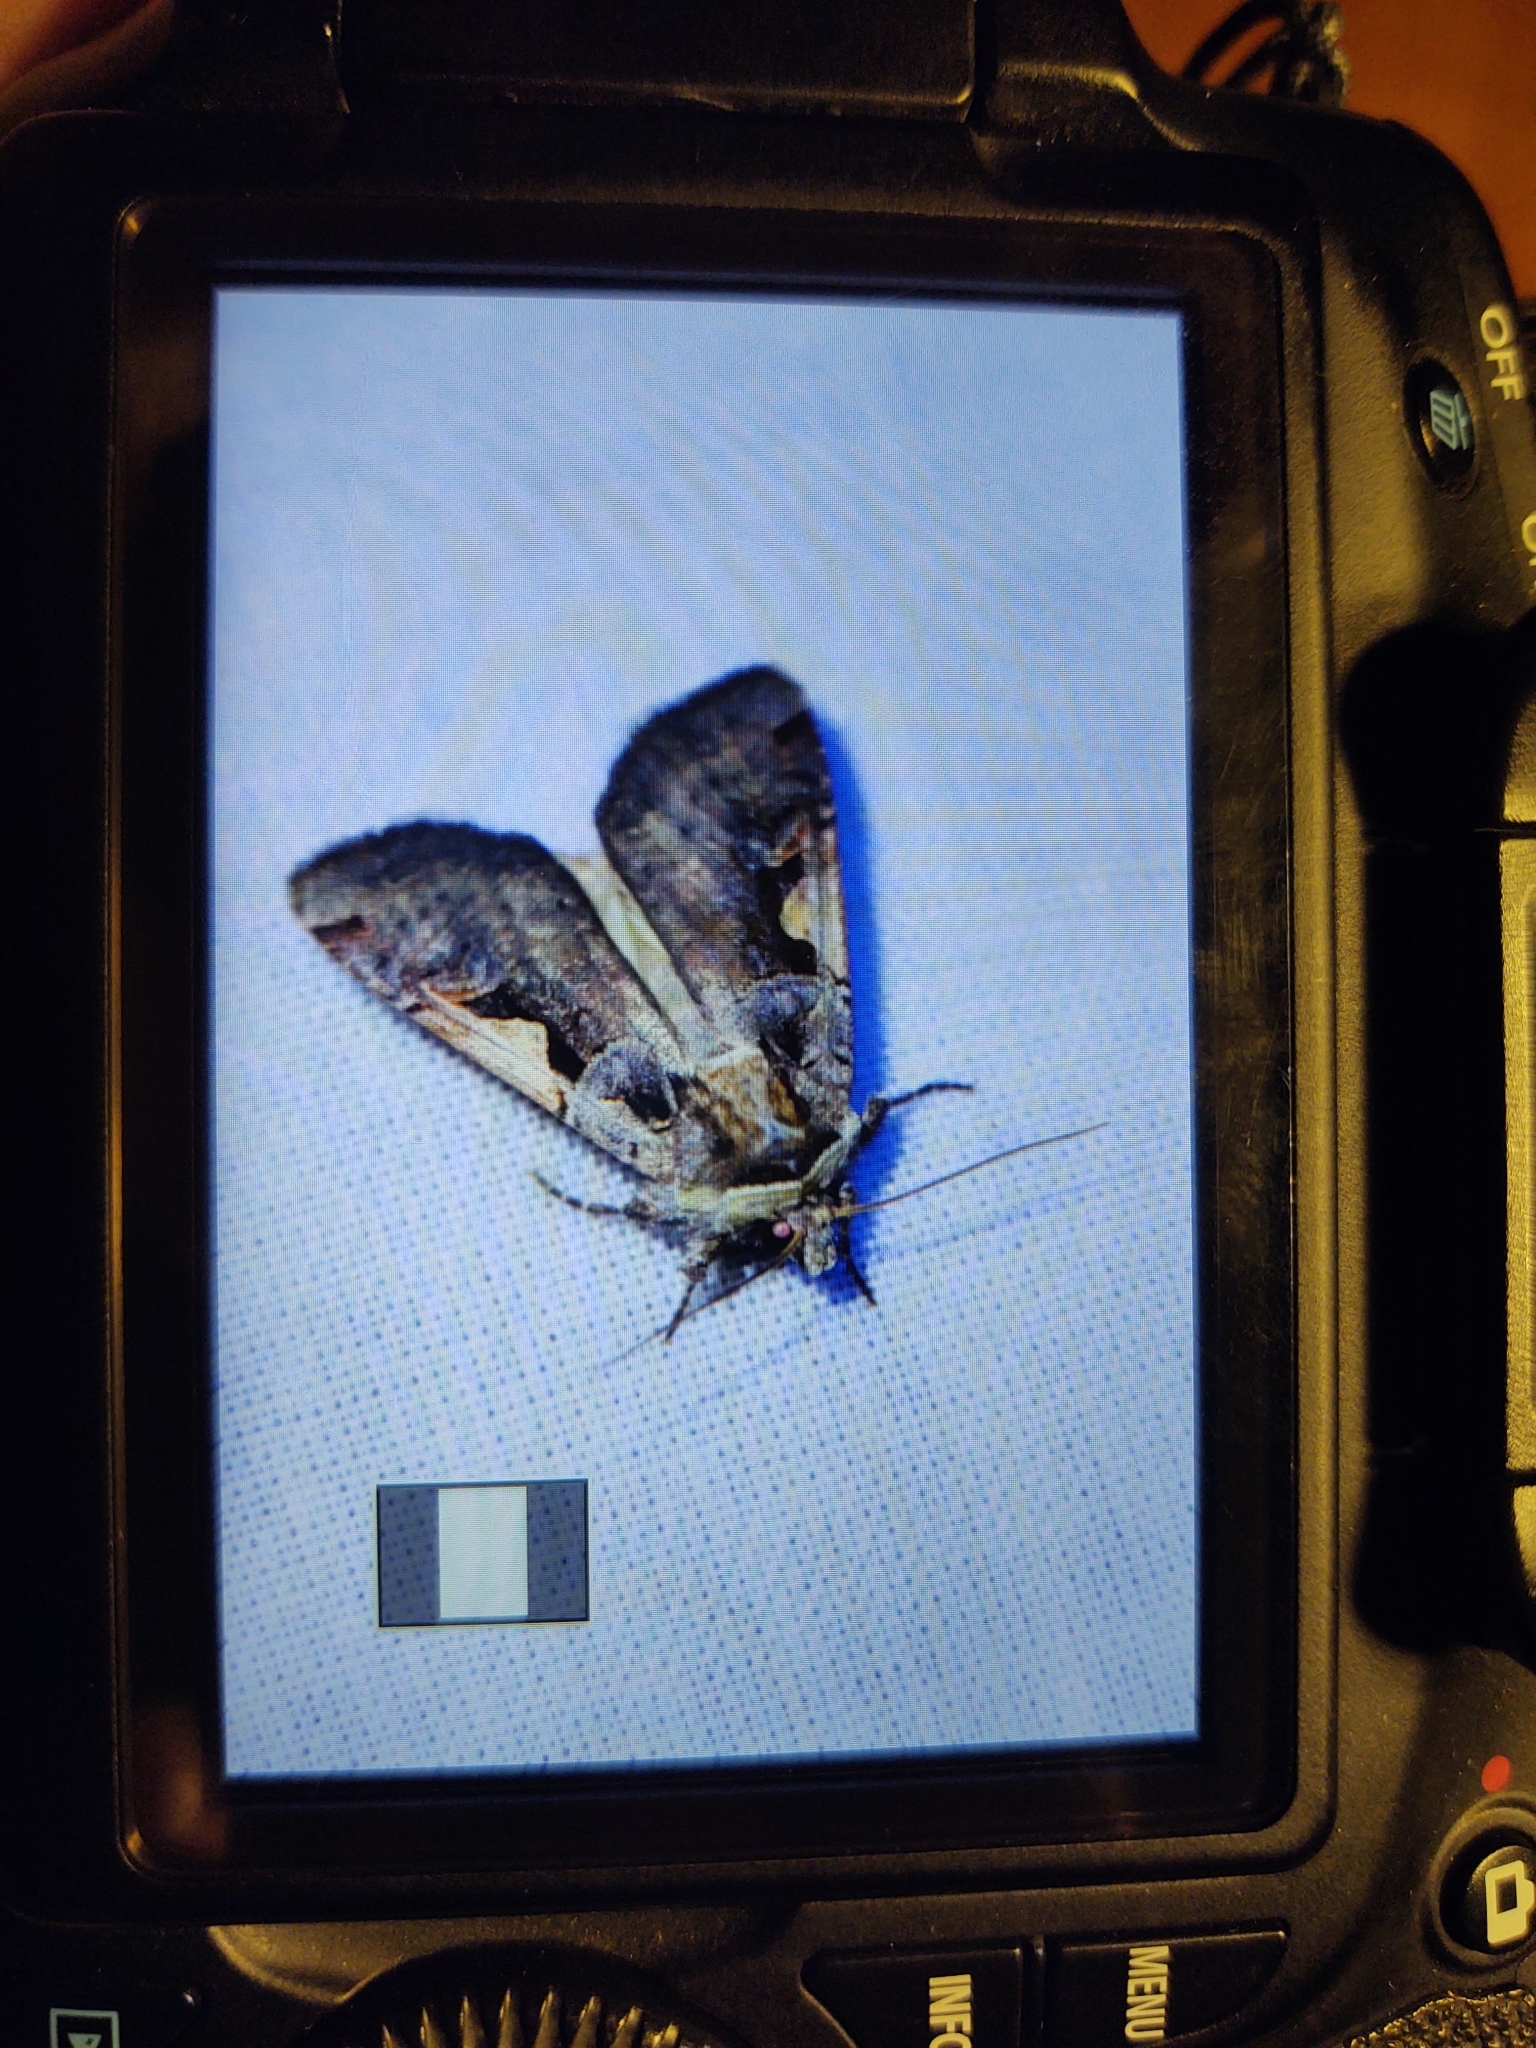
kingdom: Animalia
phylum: Arthropoda
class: Insecta
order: Lepidoptera
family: Noctuidae
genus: Xestia
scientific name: Xestia c-nigrum
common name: Setaceous hebrew character
